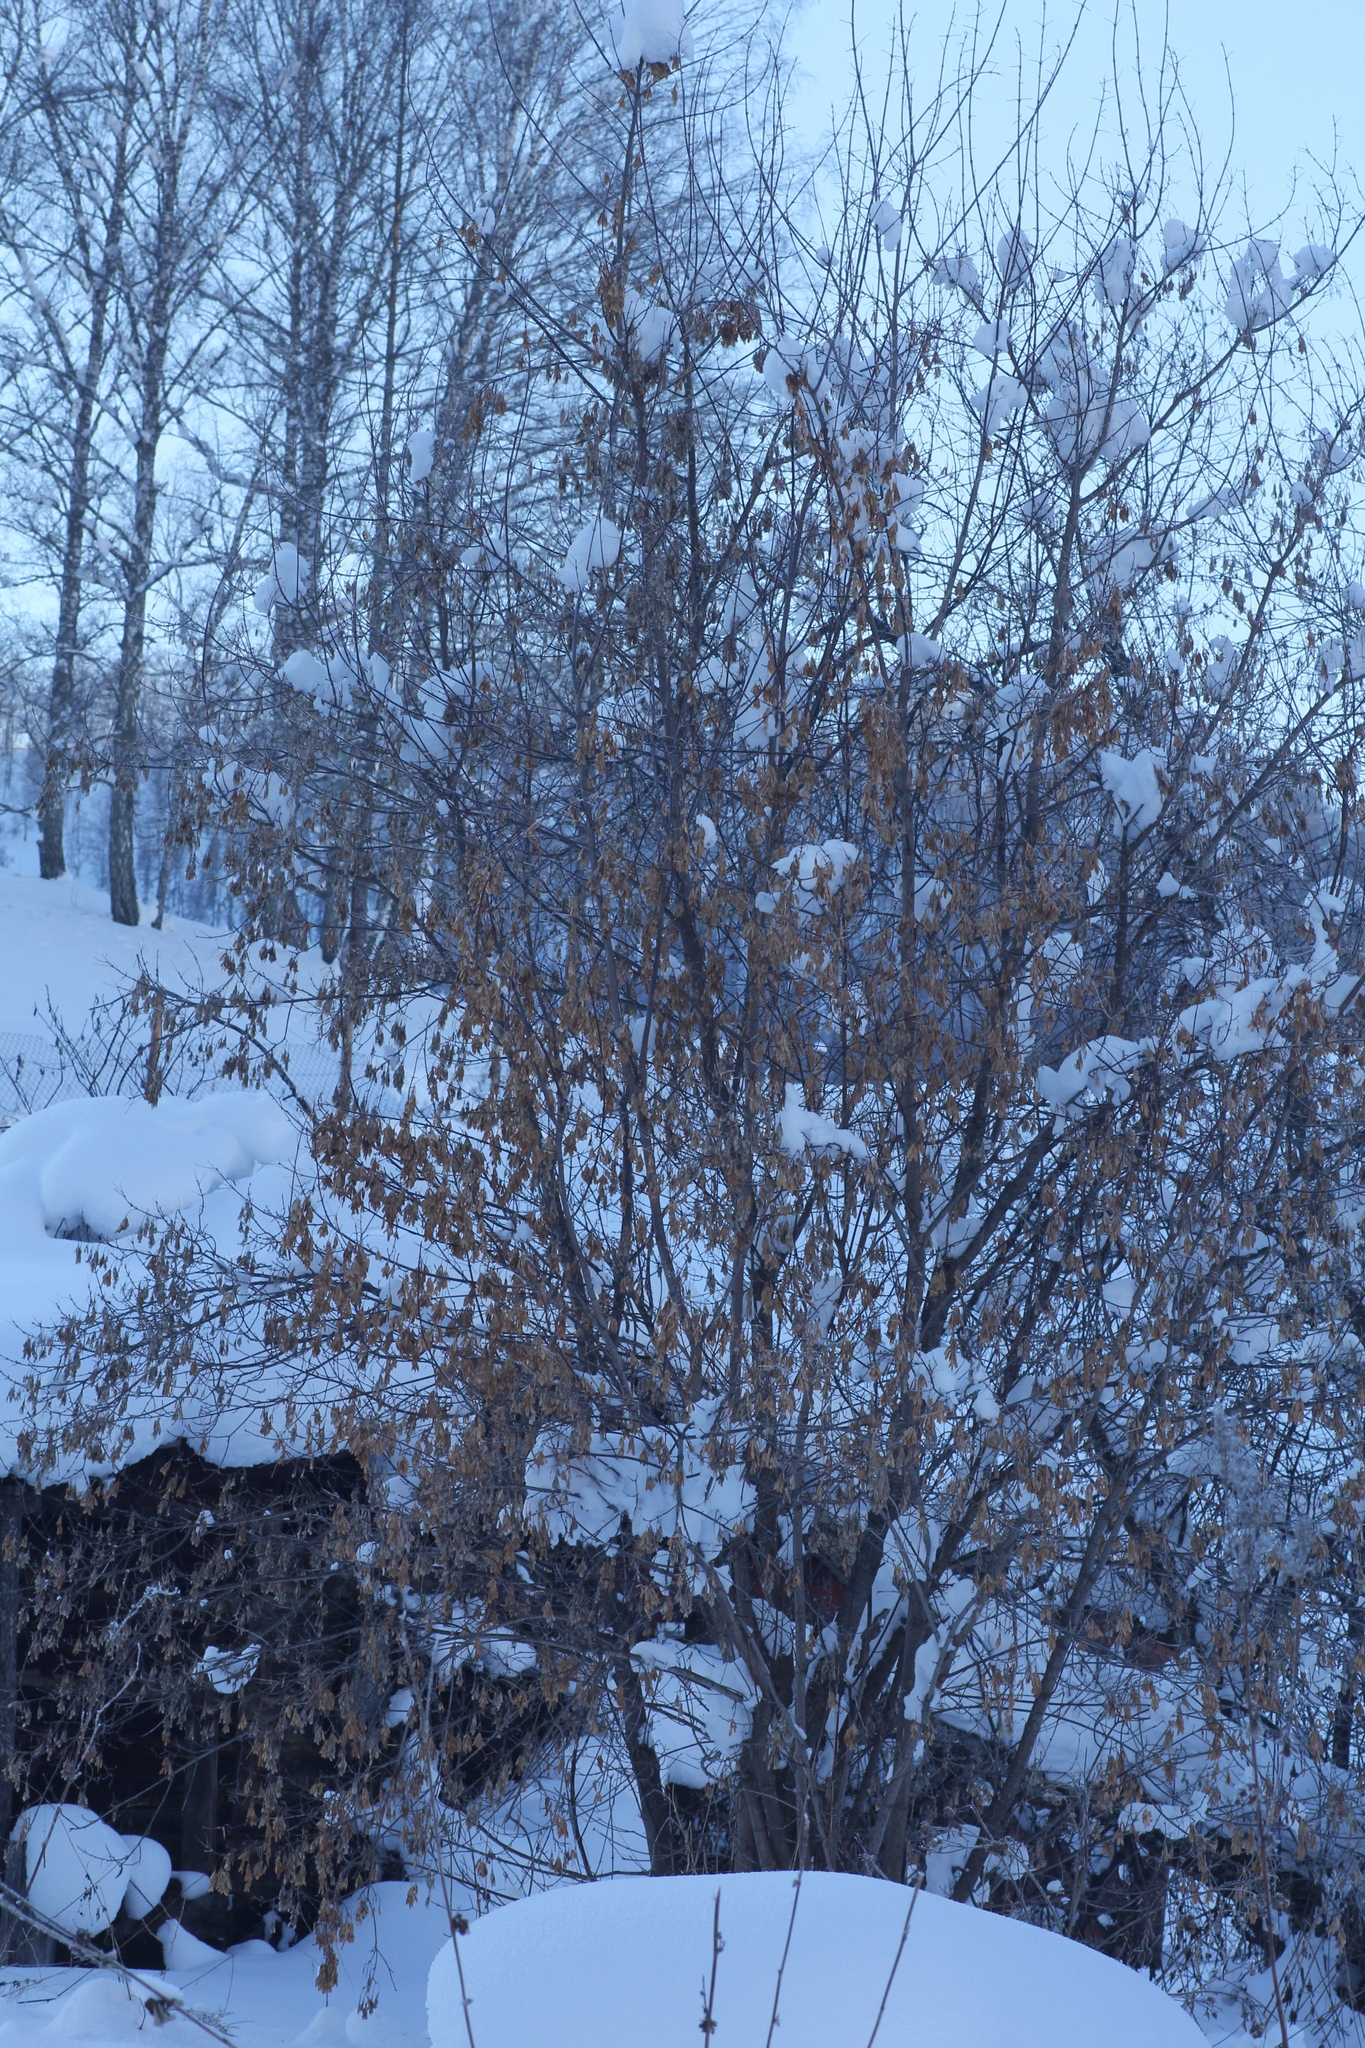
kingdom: Plantae
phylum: Tracheophyta
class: Magnoliopsida
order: Sapindales
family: Sapindaceae
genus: Acer
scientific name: Acer negundo
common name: Ashleaf maple
